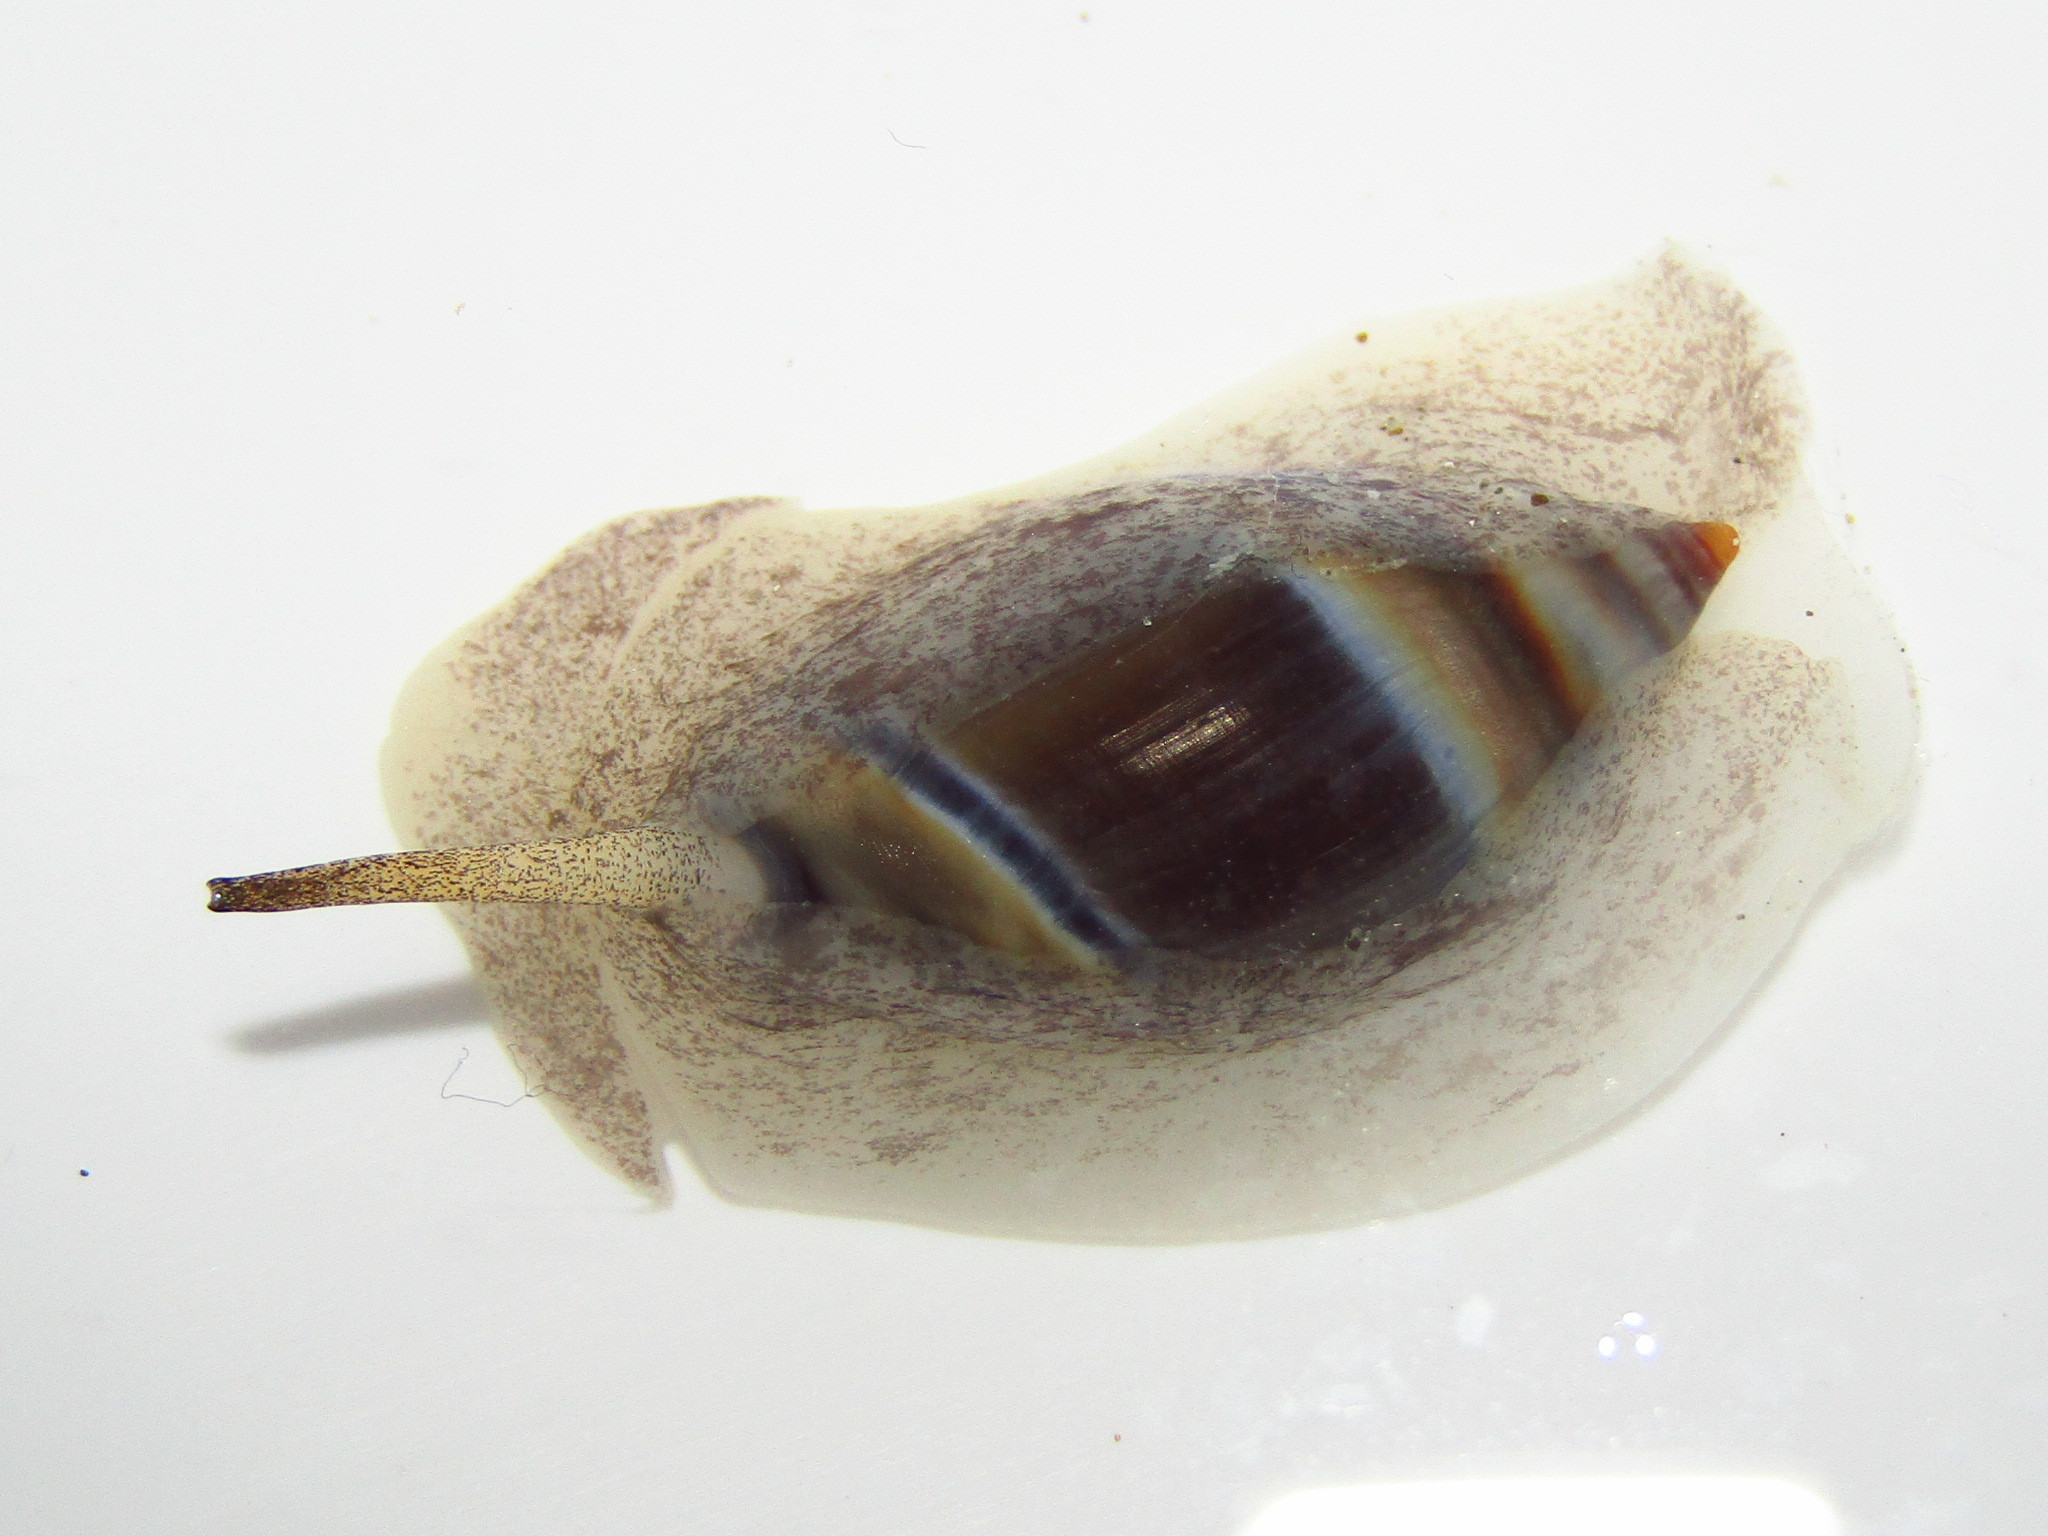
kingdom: Animalia
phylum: Mollusca
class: Gastropoda
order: Neogastropoda
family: Ancillariidae
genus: Amalda
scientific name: Amalda australis
